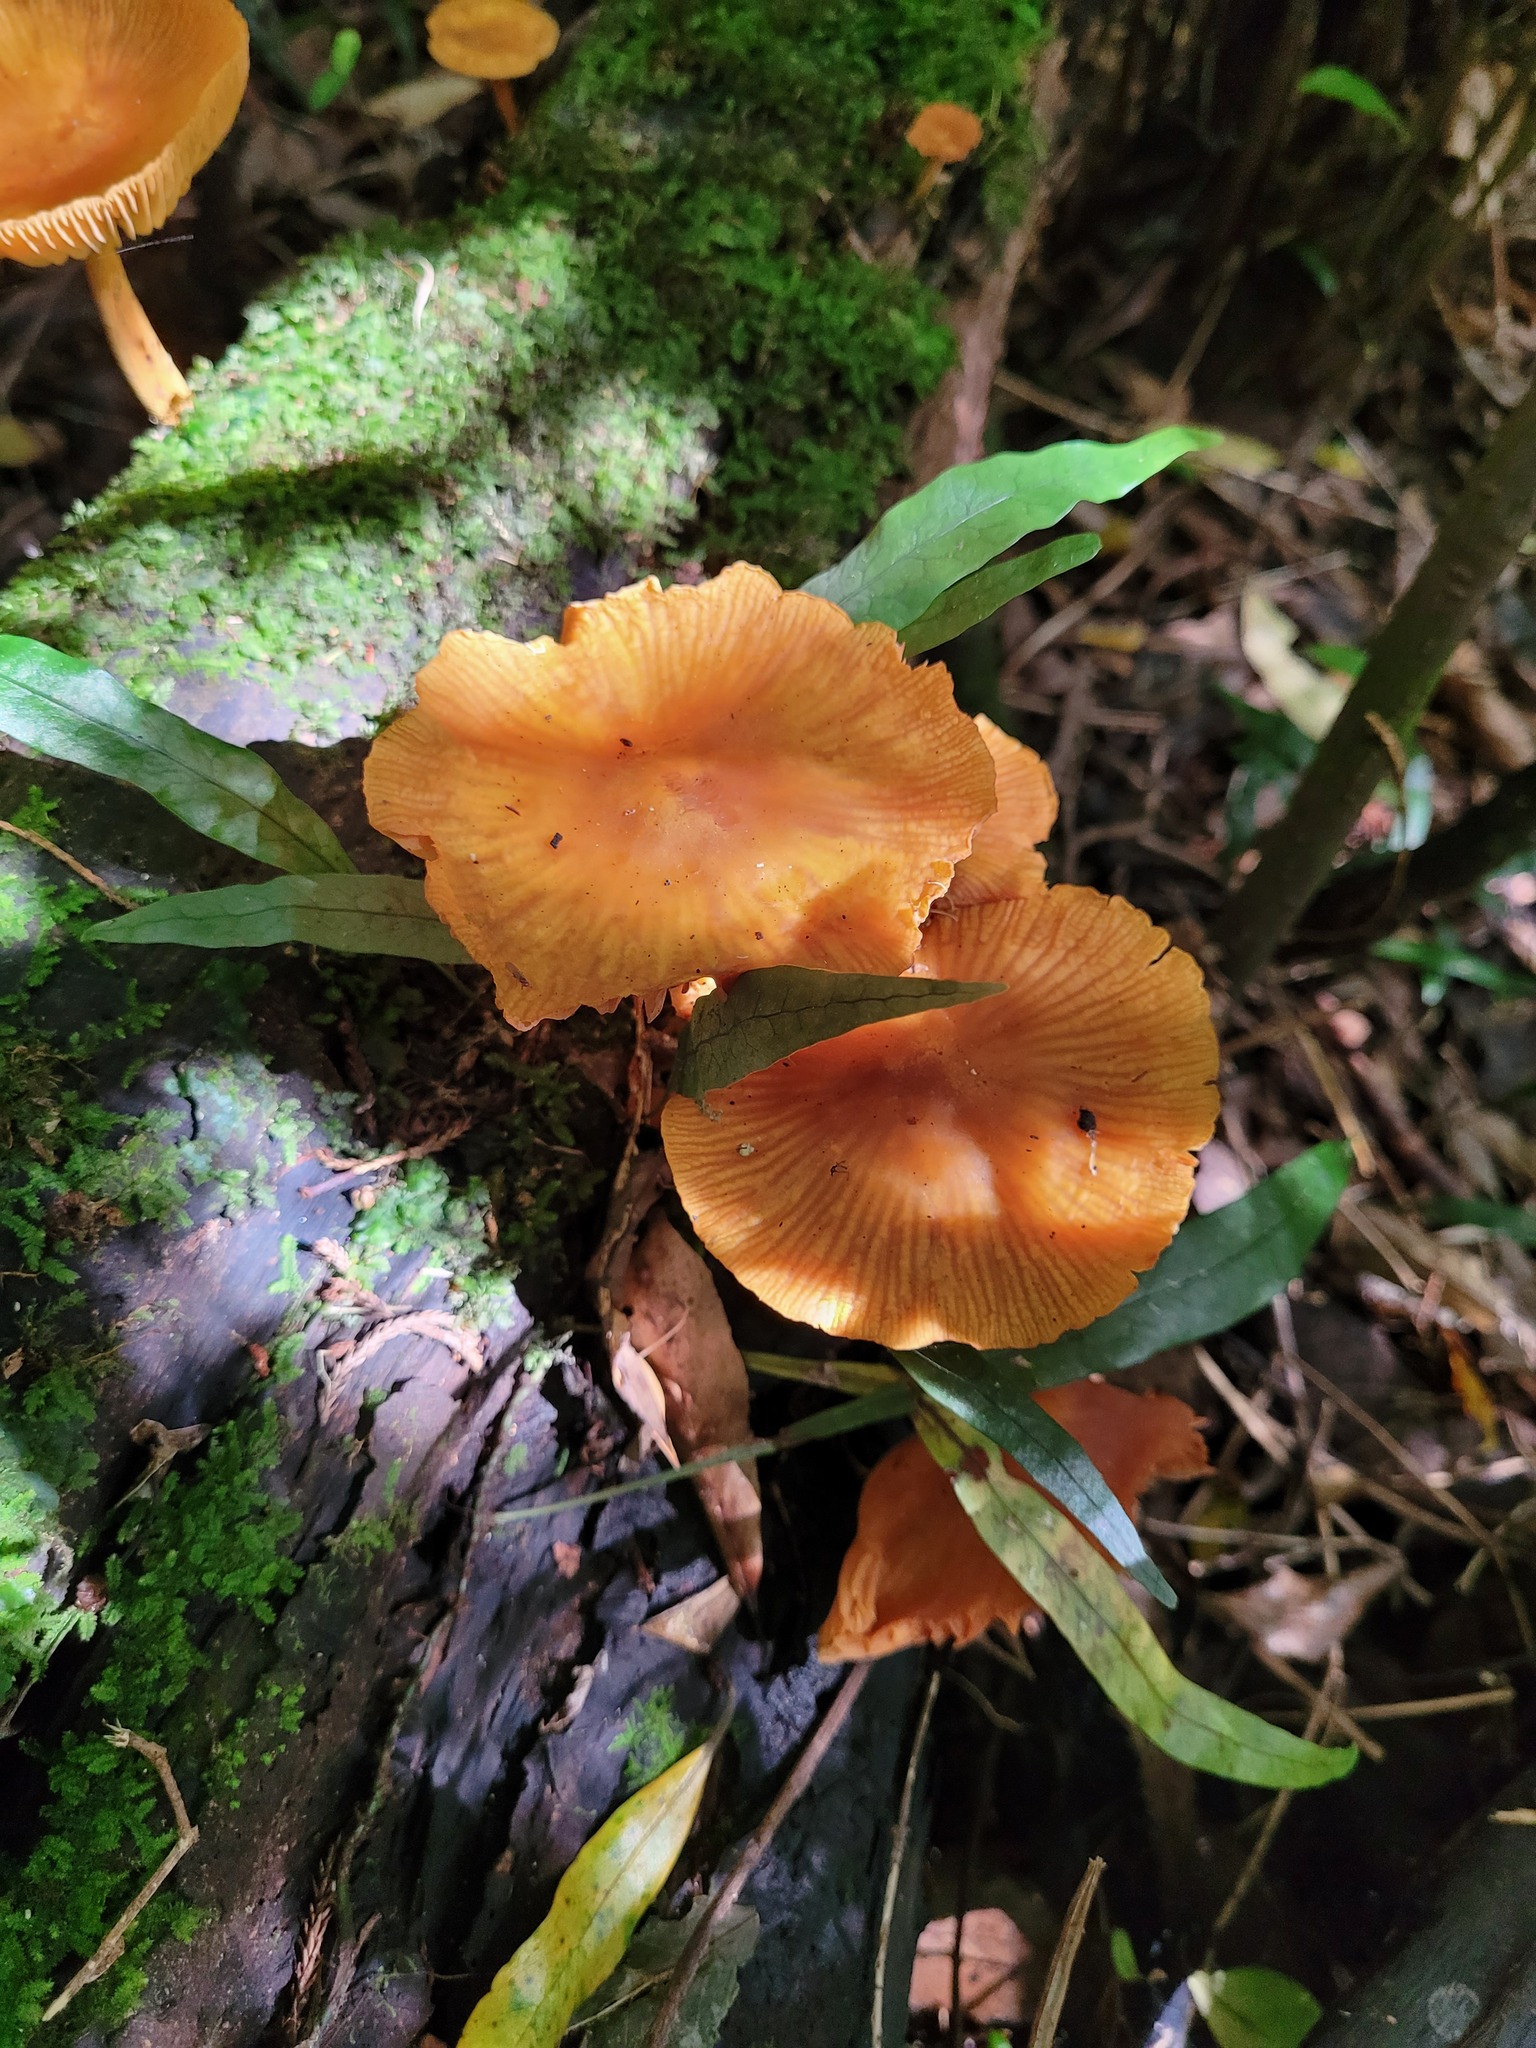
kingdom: Fungi
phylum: Basidiomycota
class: Agaricomycetes
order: Agaricales
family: Mycenaceae
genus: Heimiomyces
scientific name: Heimiomyces velutipes
